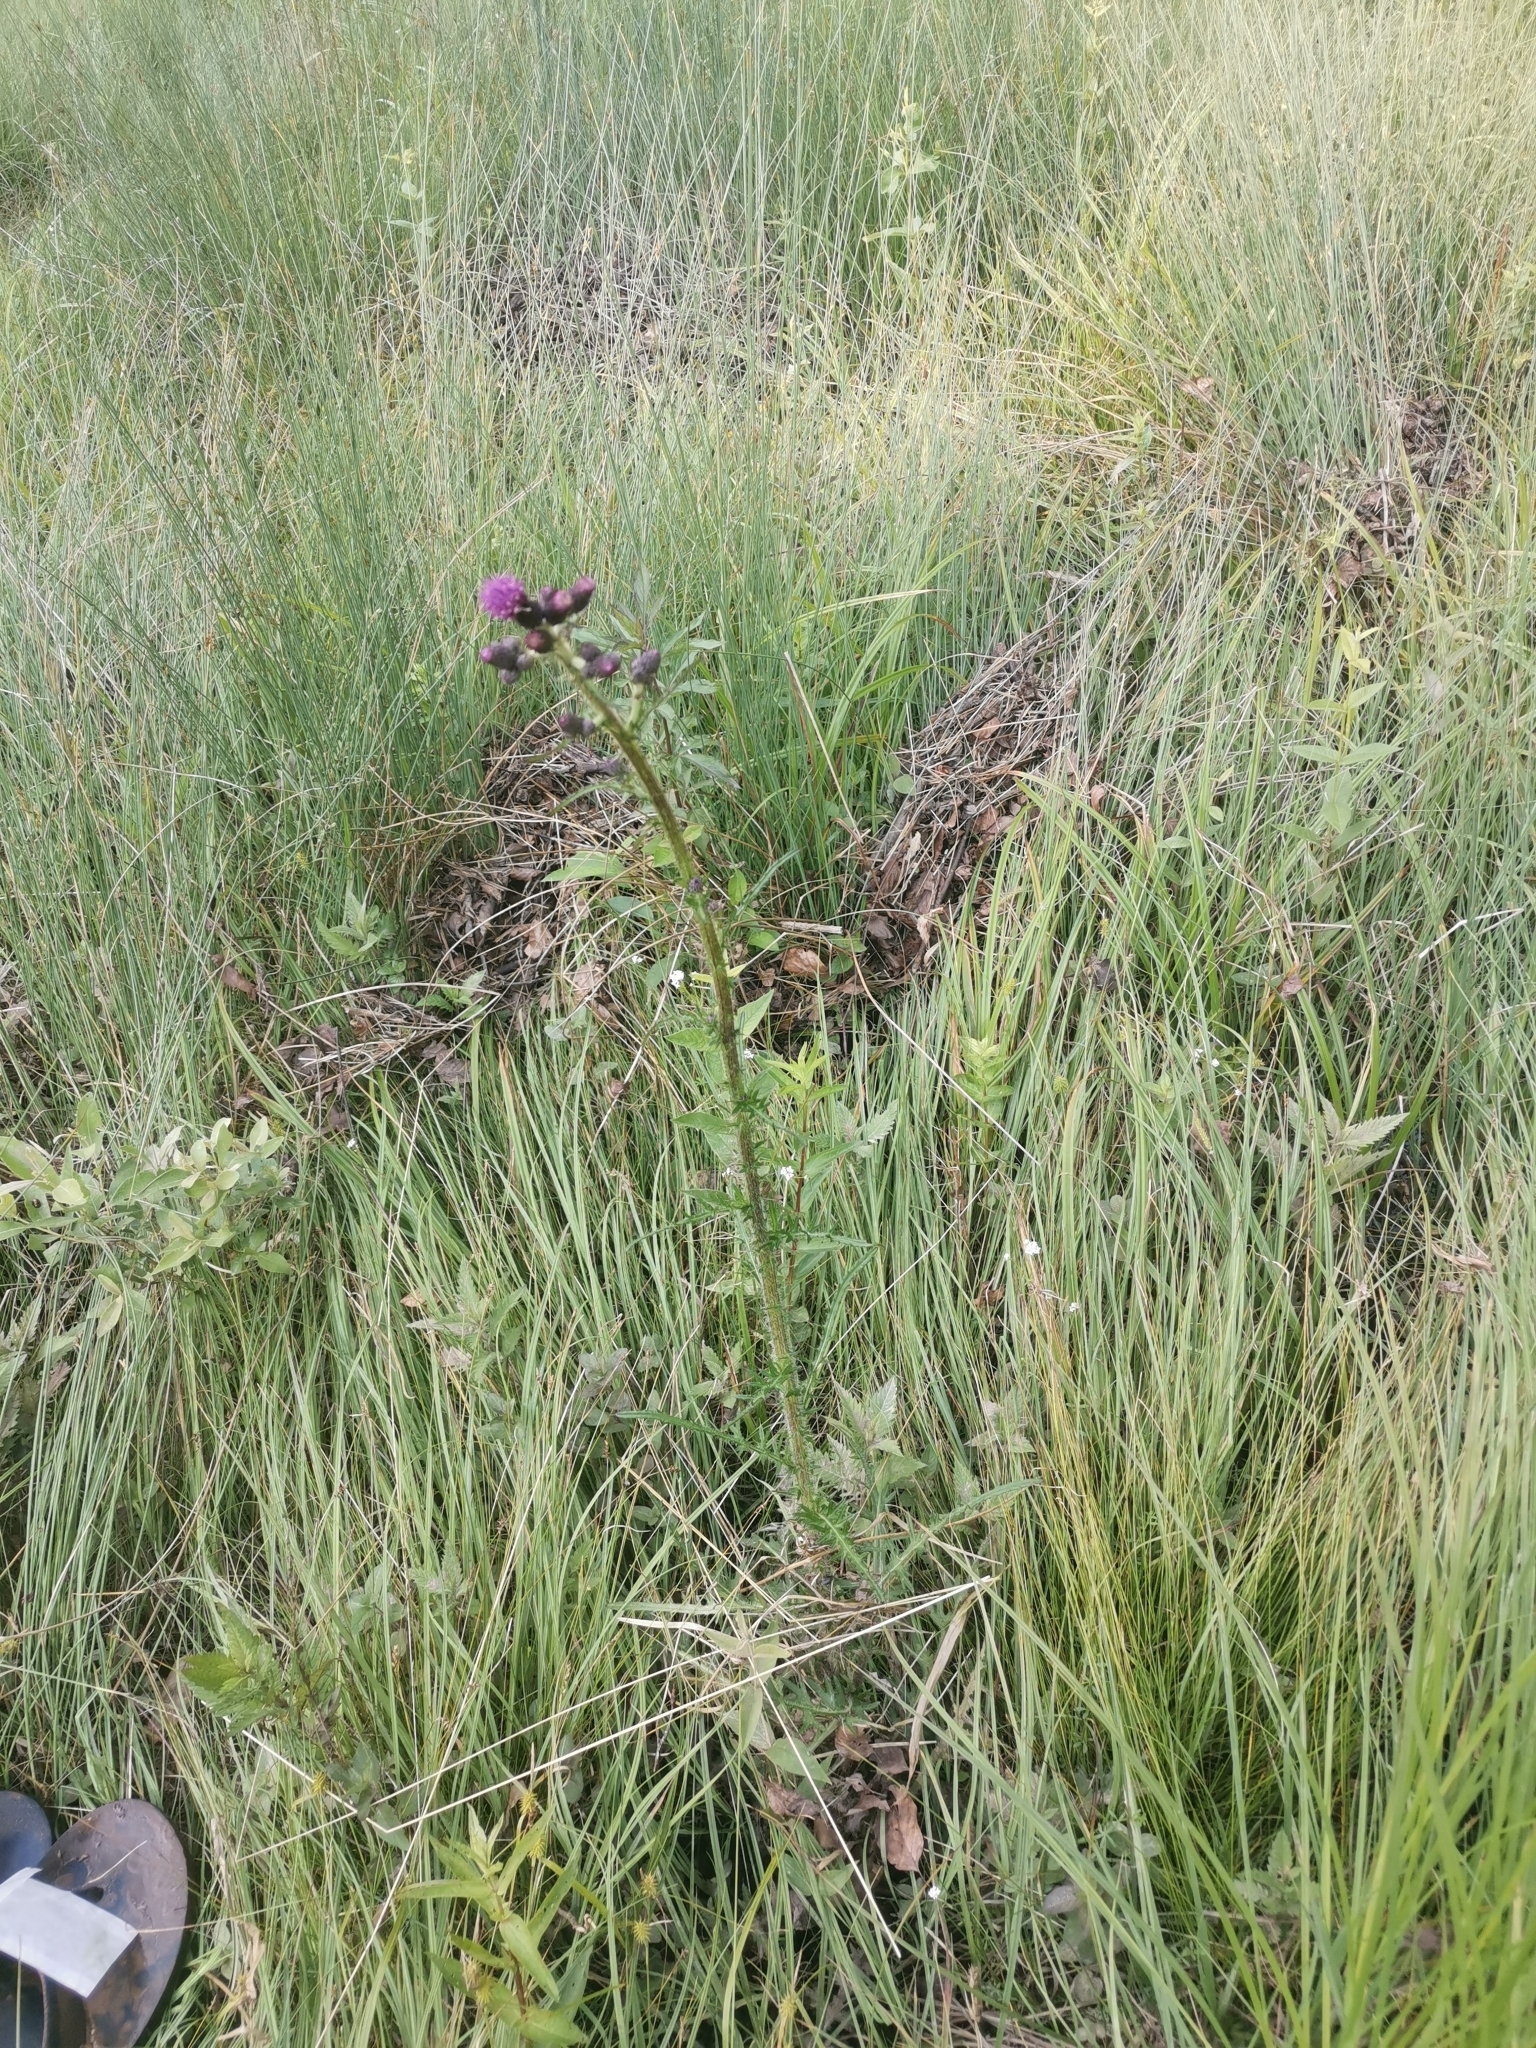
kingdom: Plantae
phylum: Tracheophyta
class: Magnoliopsida
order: Asterales
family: Asteraceae
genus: Cirsium
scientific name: Cirsium palustre
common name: Marsh thistle
